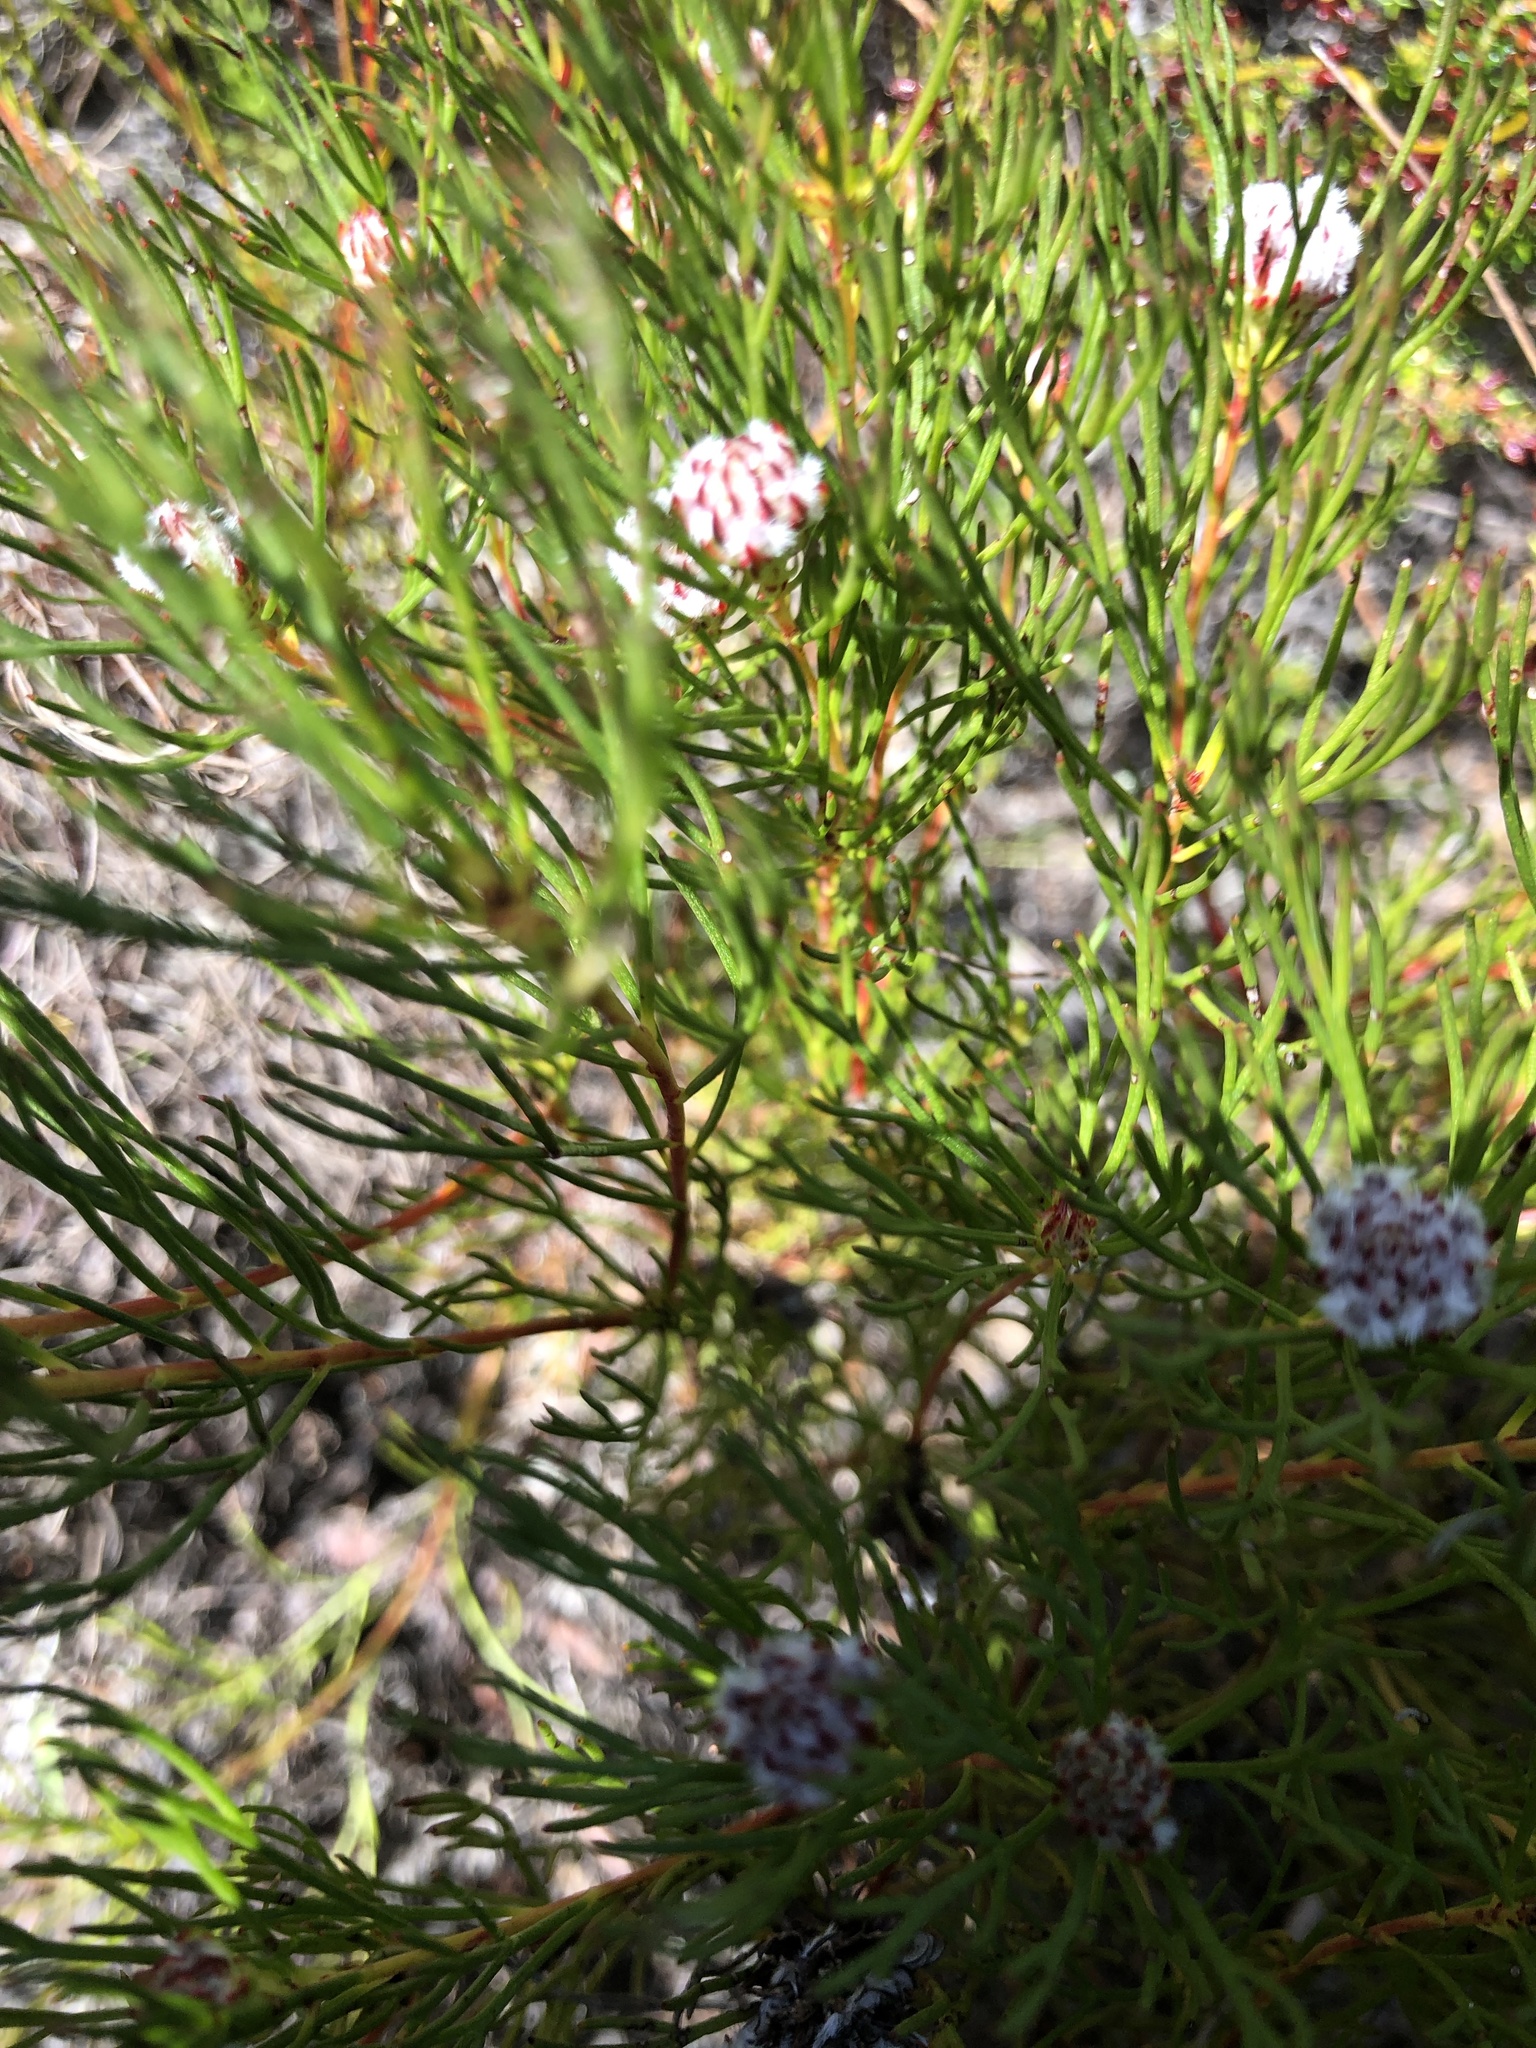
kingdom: Plantae
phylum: Tracheophyta
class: Magnoliopsida
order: Proteales
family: Proteaceae
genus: Serruria
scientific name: Serruria nervosa
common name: Fluted spiderhead
